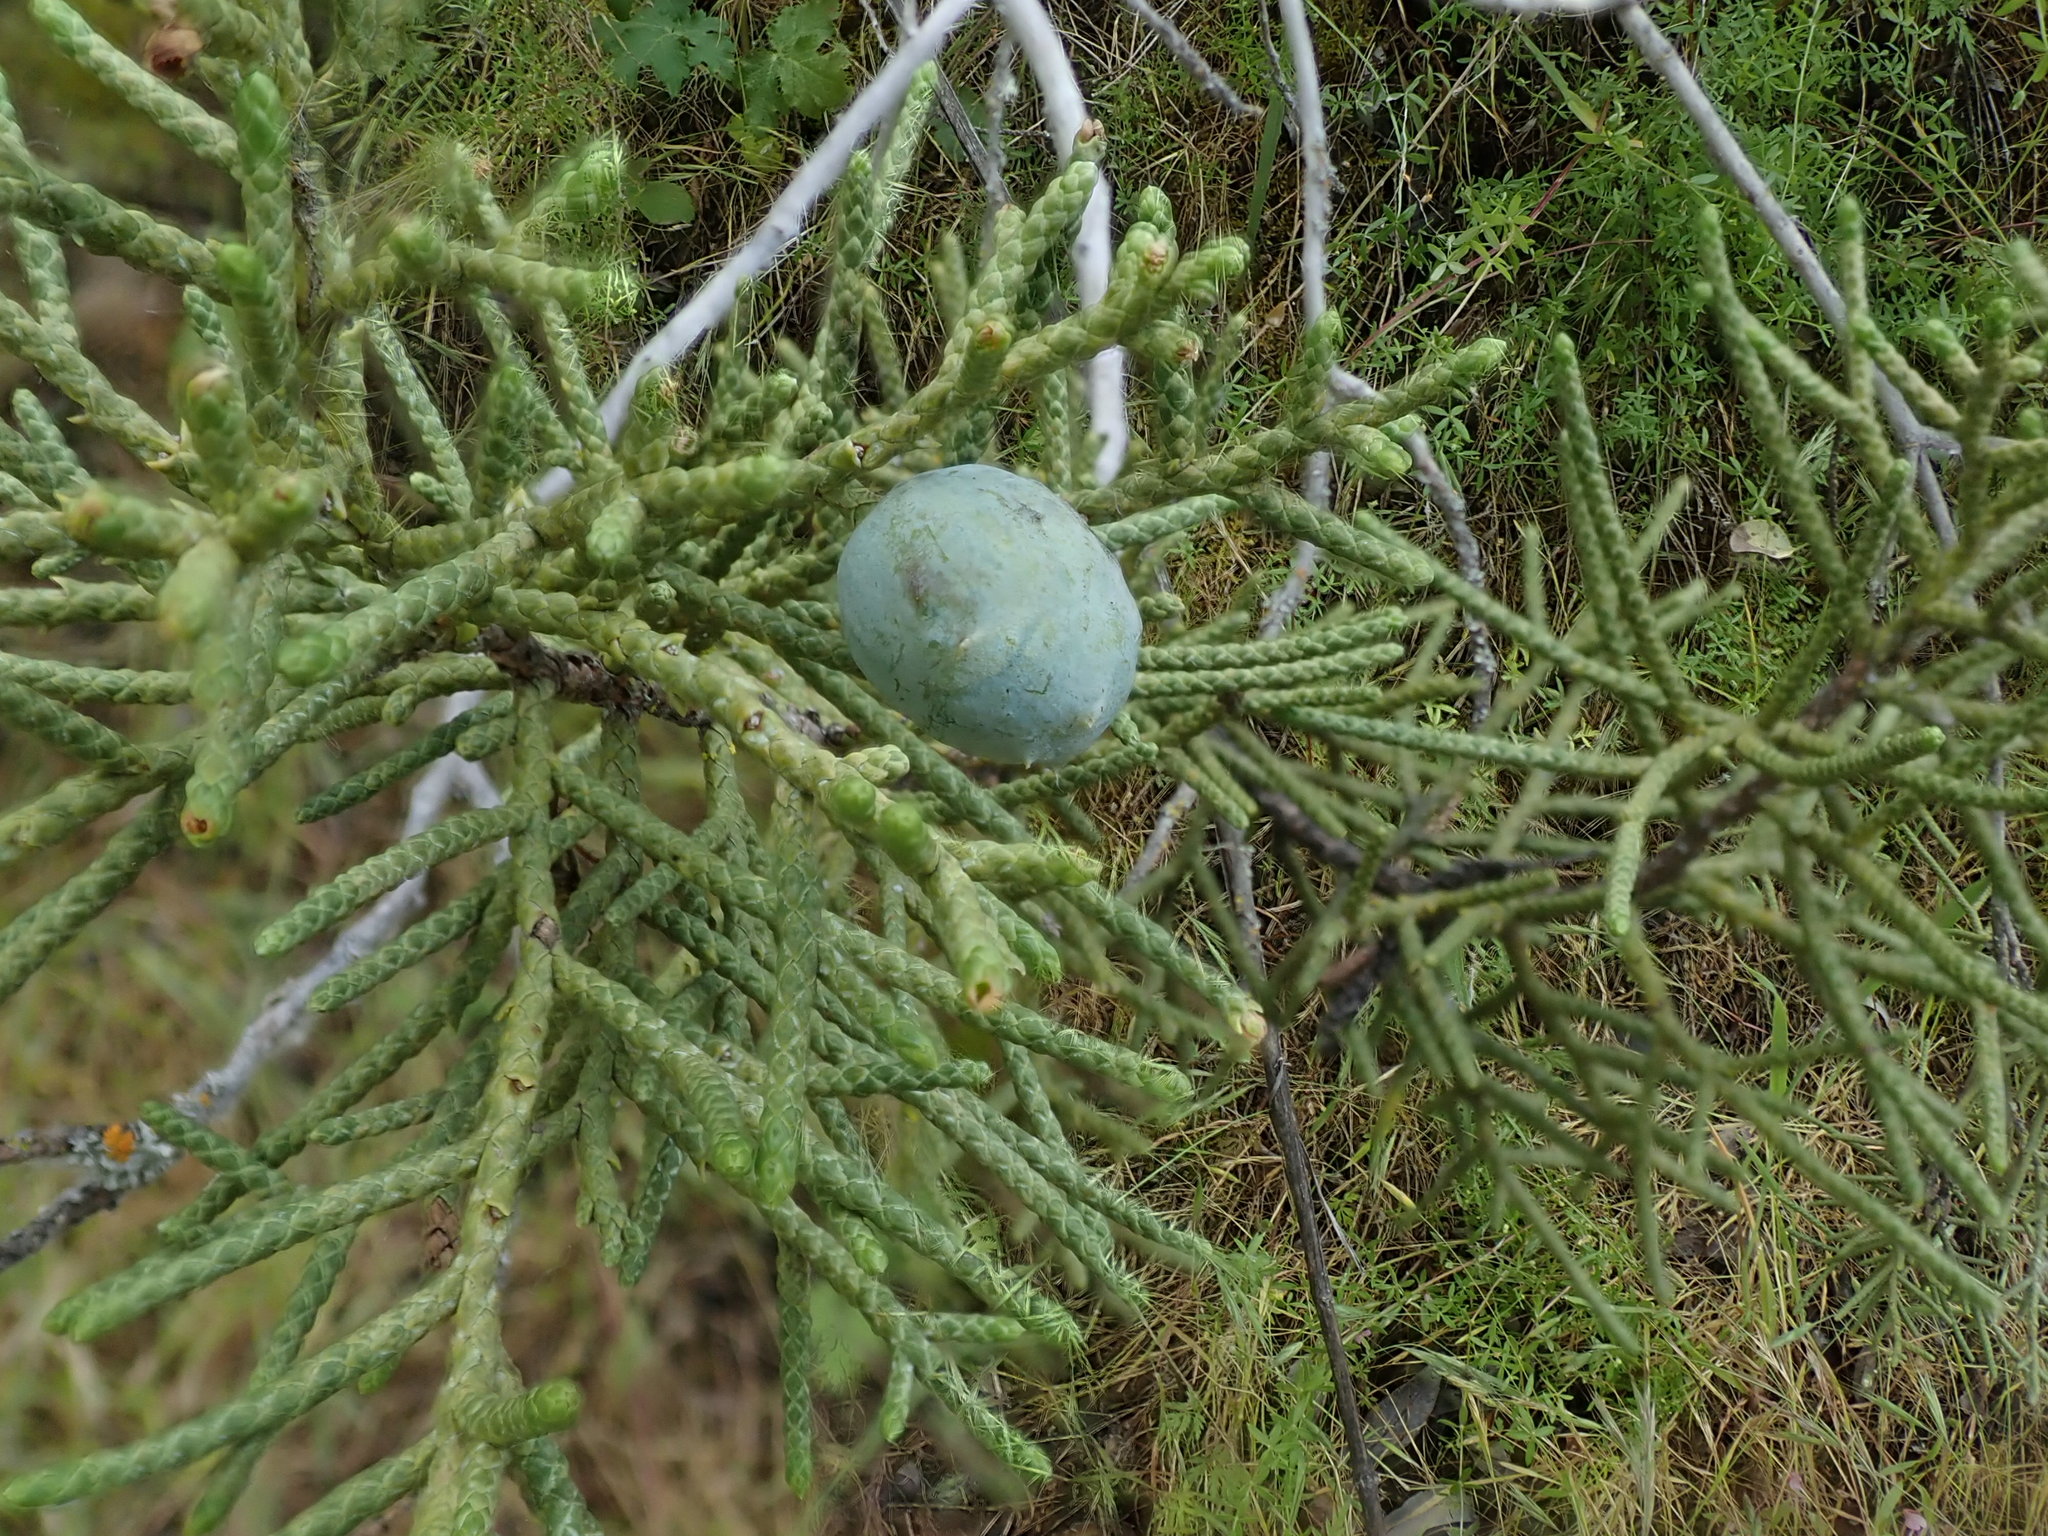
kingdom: Plantae
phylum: Tracheophyta
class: Pinopsida
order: Pinales
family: Cupressaceae
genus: Juniperus
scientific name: Juniperus californica
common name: California juniper
